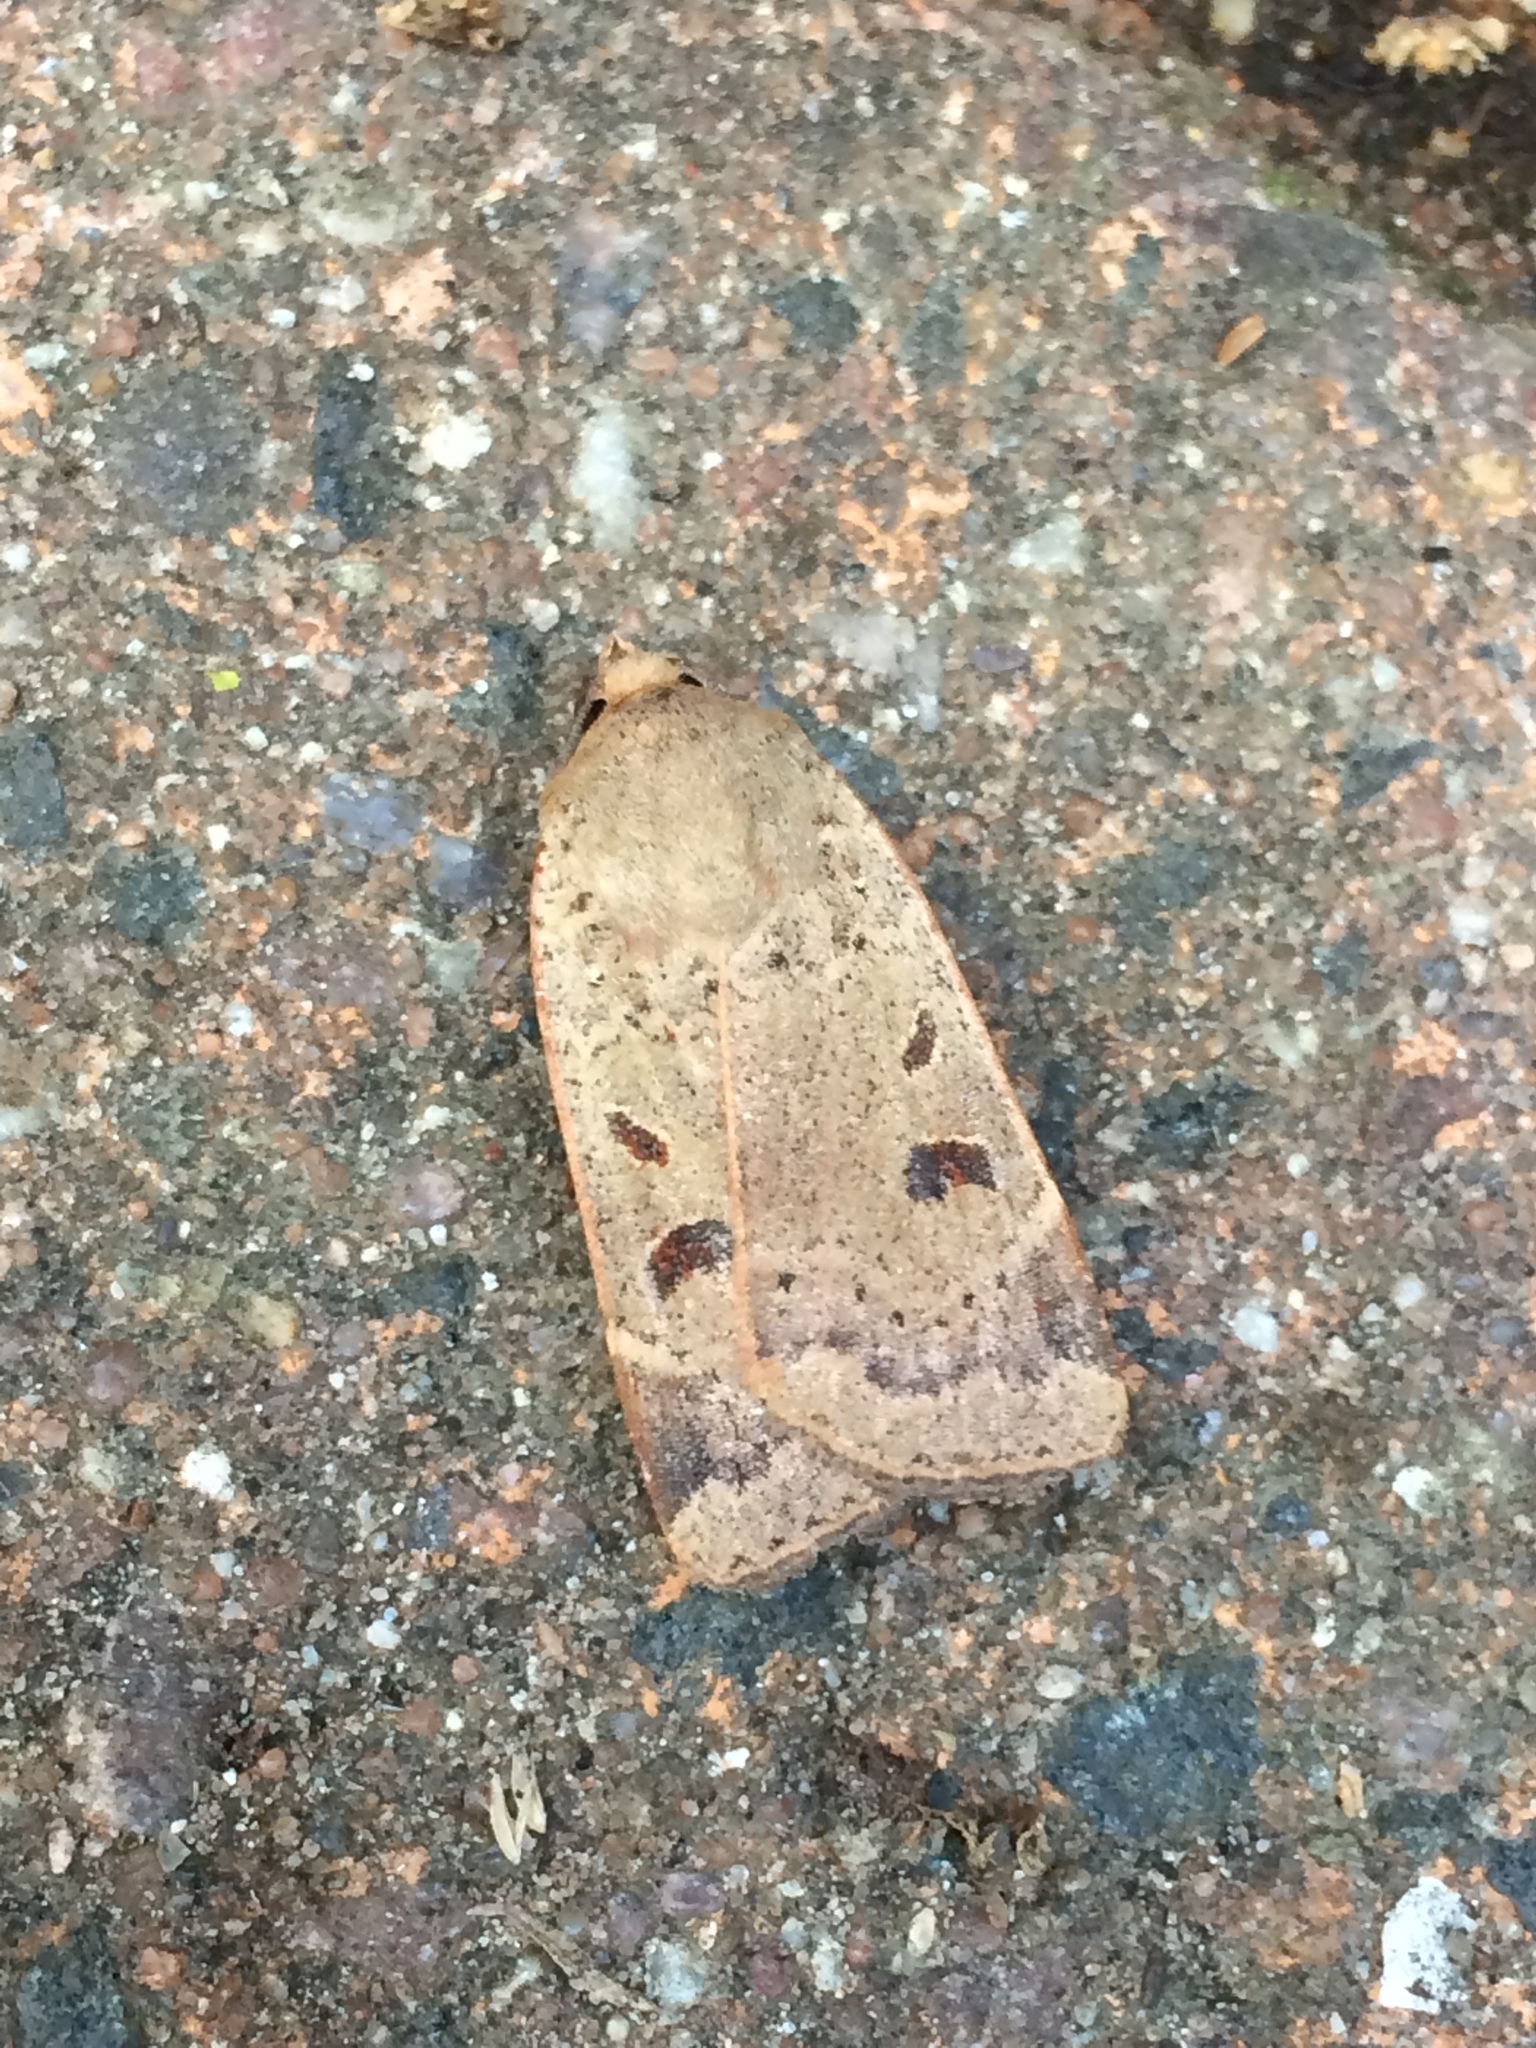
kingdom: Animalia
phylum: Arthropoda
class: Insecta
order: Lepidoptera
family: Noctuidae
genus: Noctua
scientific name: Noctua comes
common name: Lesser yellow underwing
